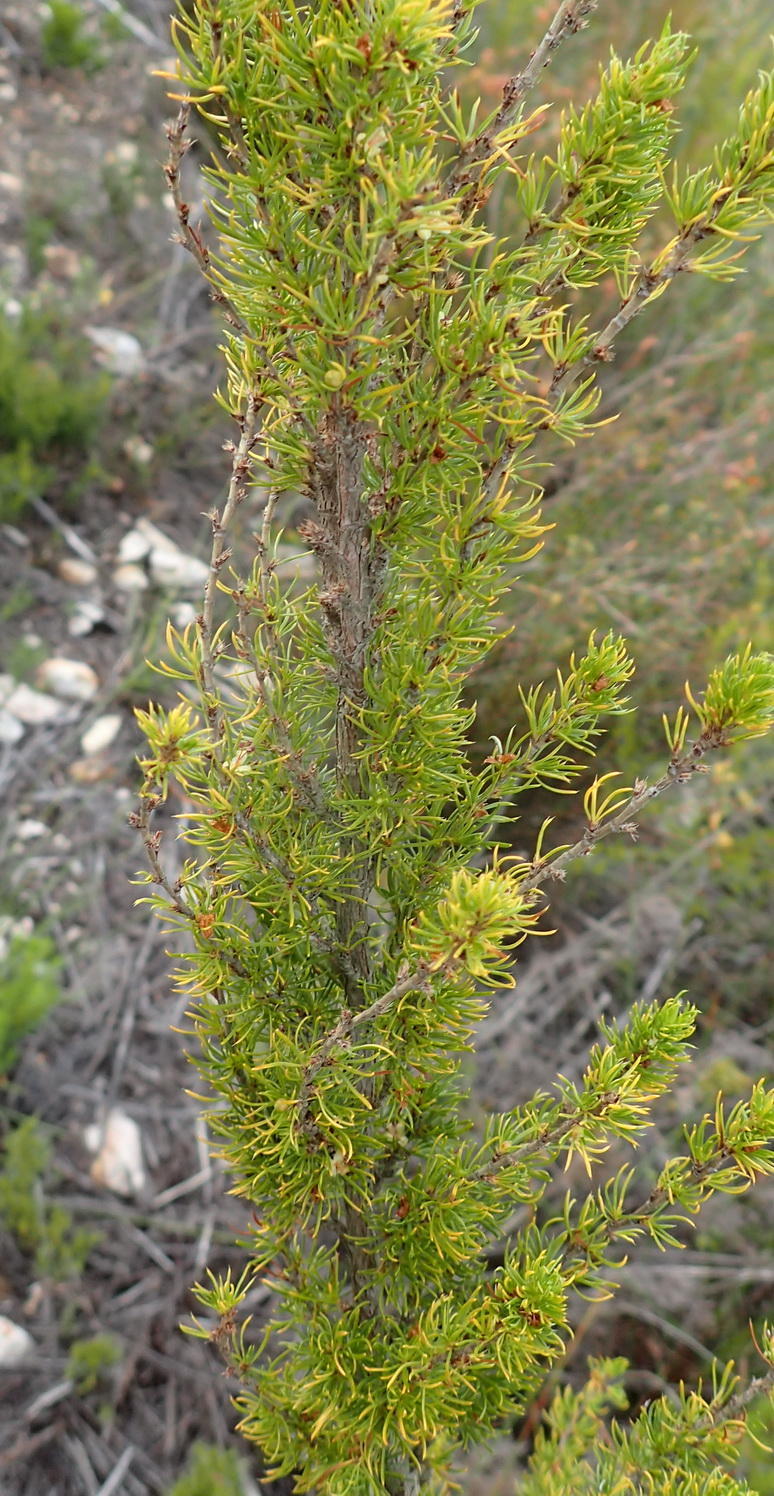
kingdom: Plantae
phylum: Tracheophyta
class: Magnoliopsida
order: Rosales
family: Rosaceae
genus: Cliffortia
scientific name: Cliffortia paucistaminea
